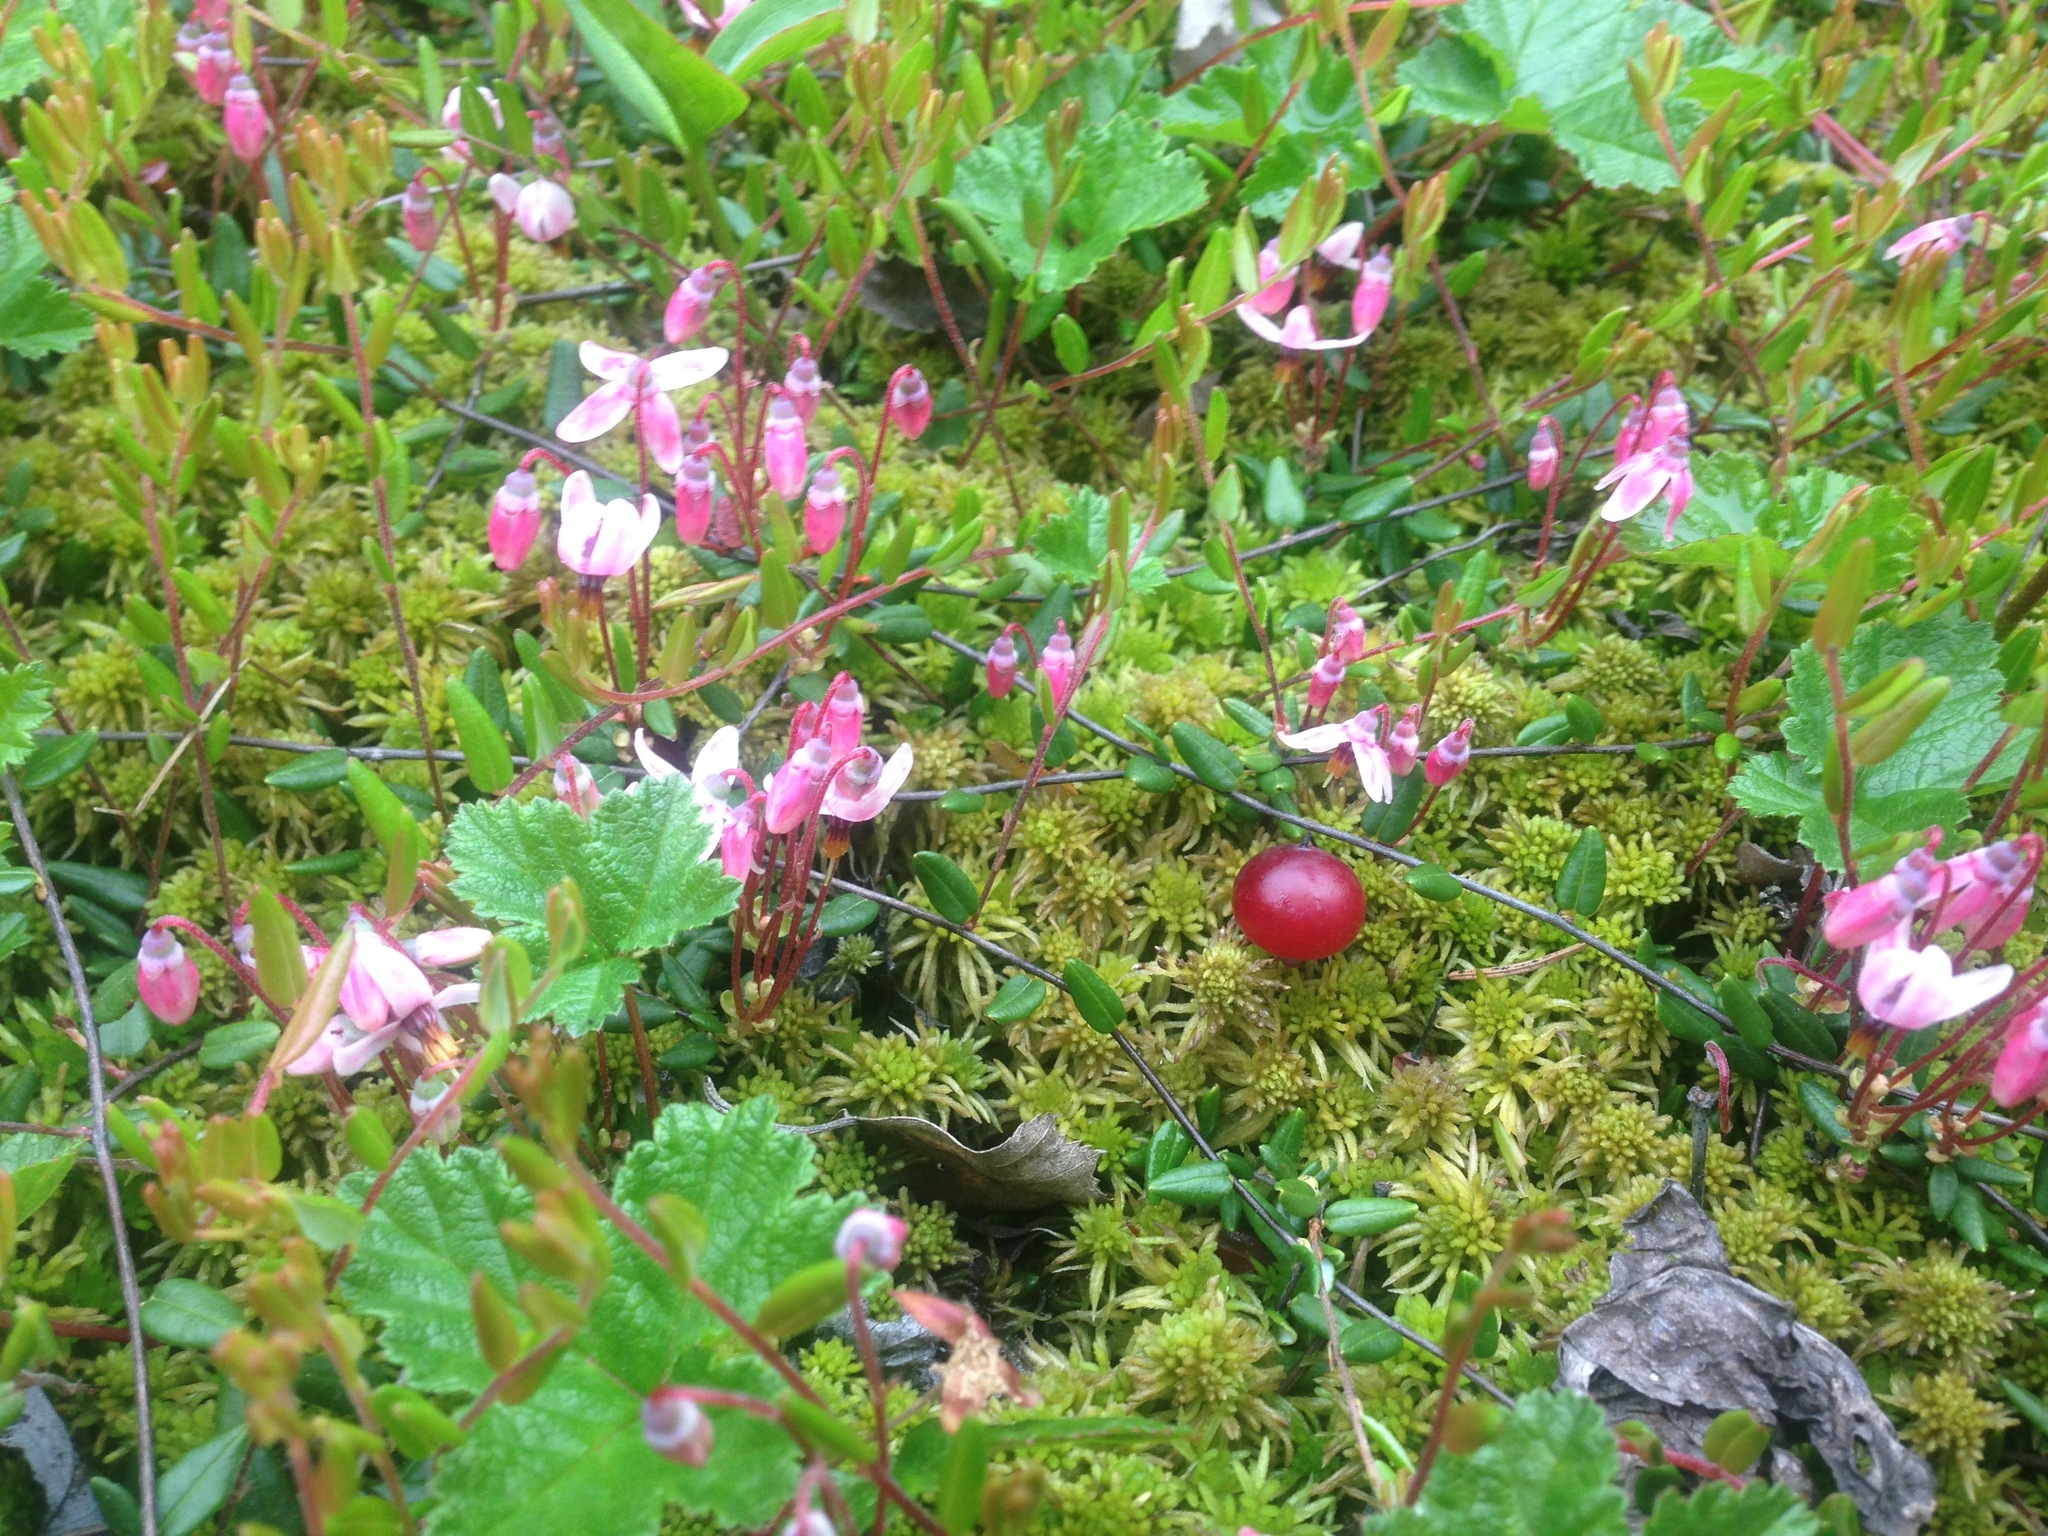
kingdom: Plantae
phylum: Tracheophyta
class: Magnoliopsida
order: Ericales
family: Ericaceae
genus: Vaccinium
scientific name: Vaccinium oxycoccos
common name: Cranberry
